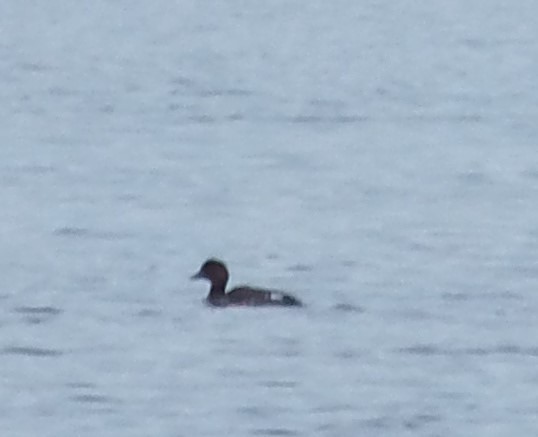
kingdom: Animalia
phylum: Chordata
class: Aves
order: Anseriformes
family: Anatidae
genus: Bucephala
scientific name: Bucephala clangula
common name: Common goldeneye
